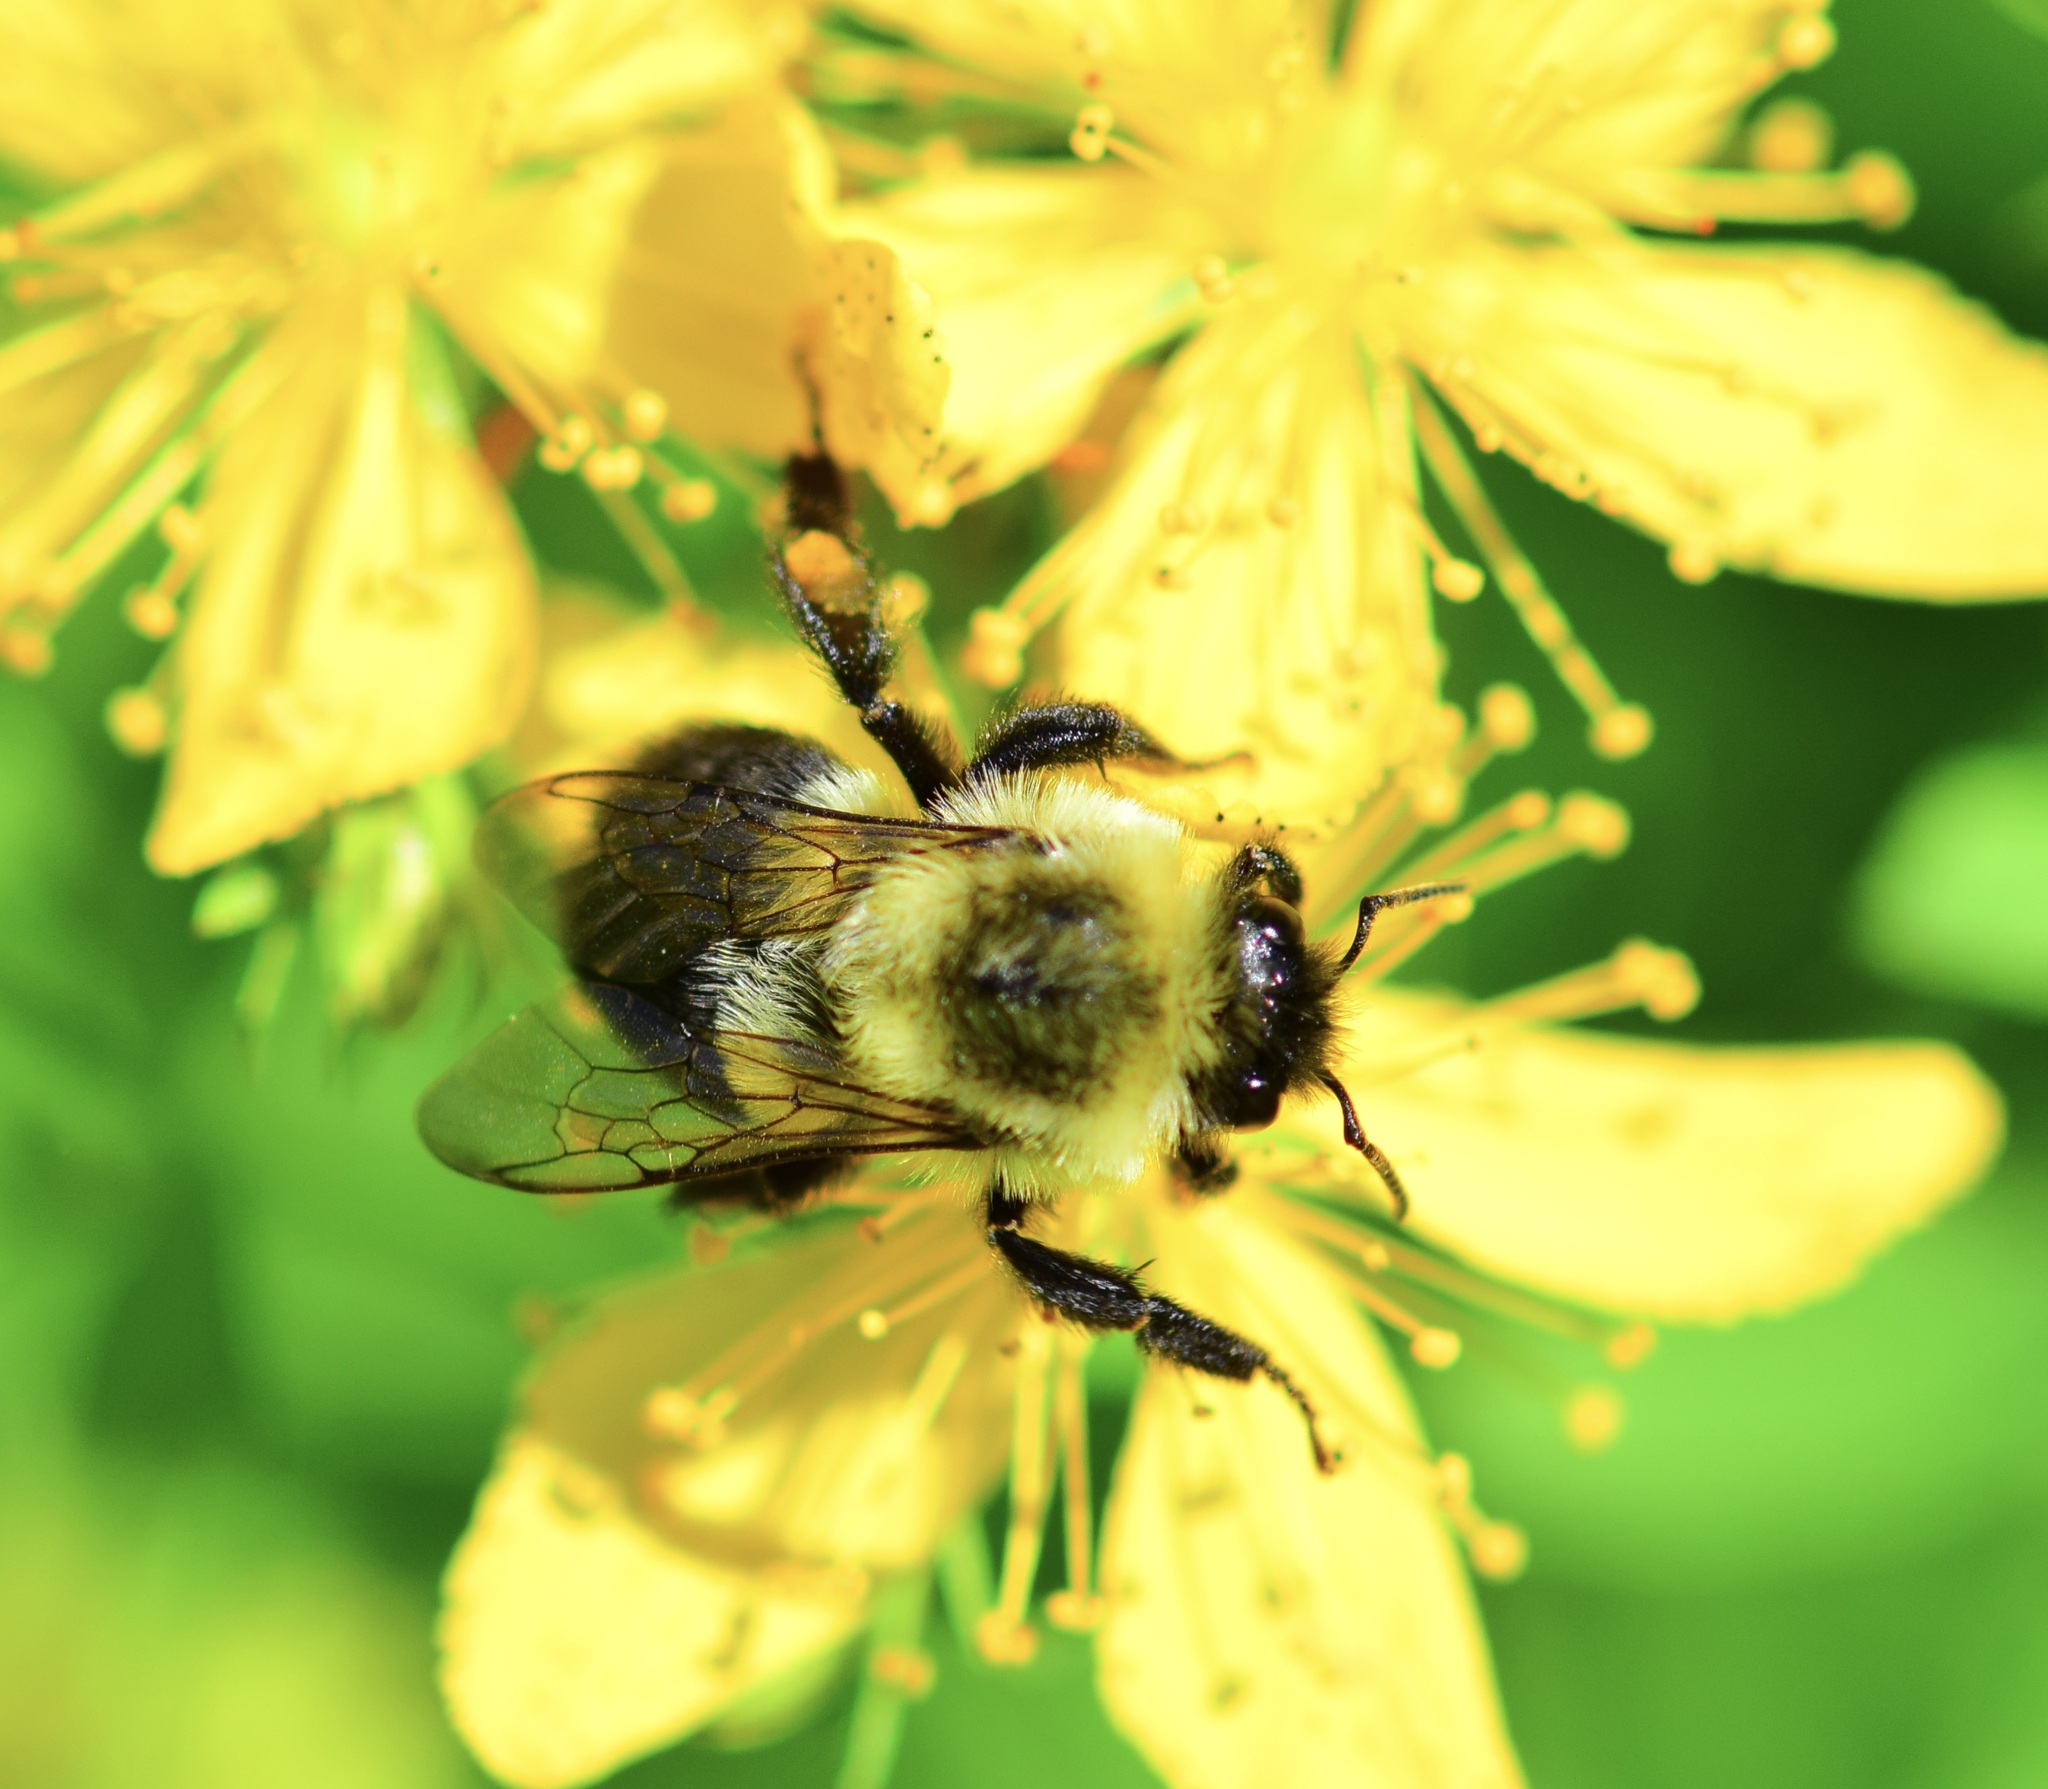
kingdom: Animalia
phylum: Arthropoda
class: Insecta
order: Hymenoptera
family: Apidae
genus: Bombus
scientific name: Bombus impatiens
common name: Common eastern bumble bee
